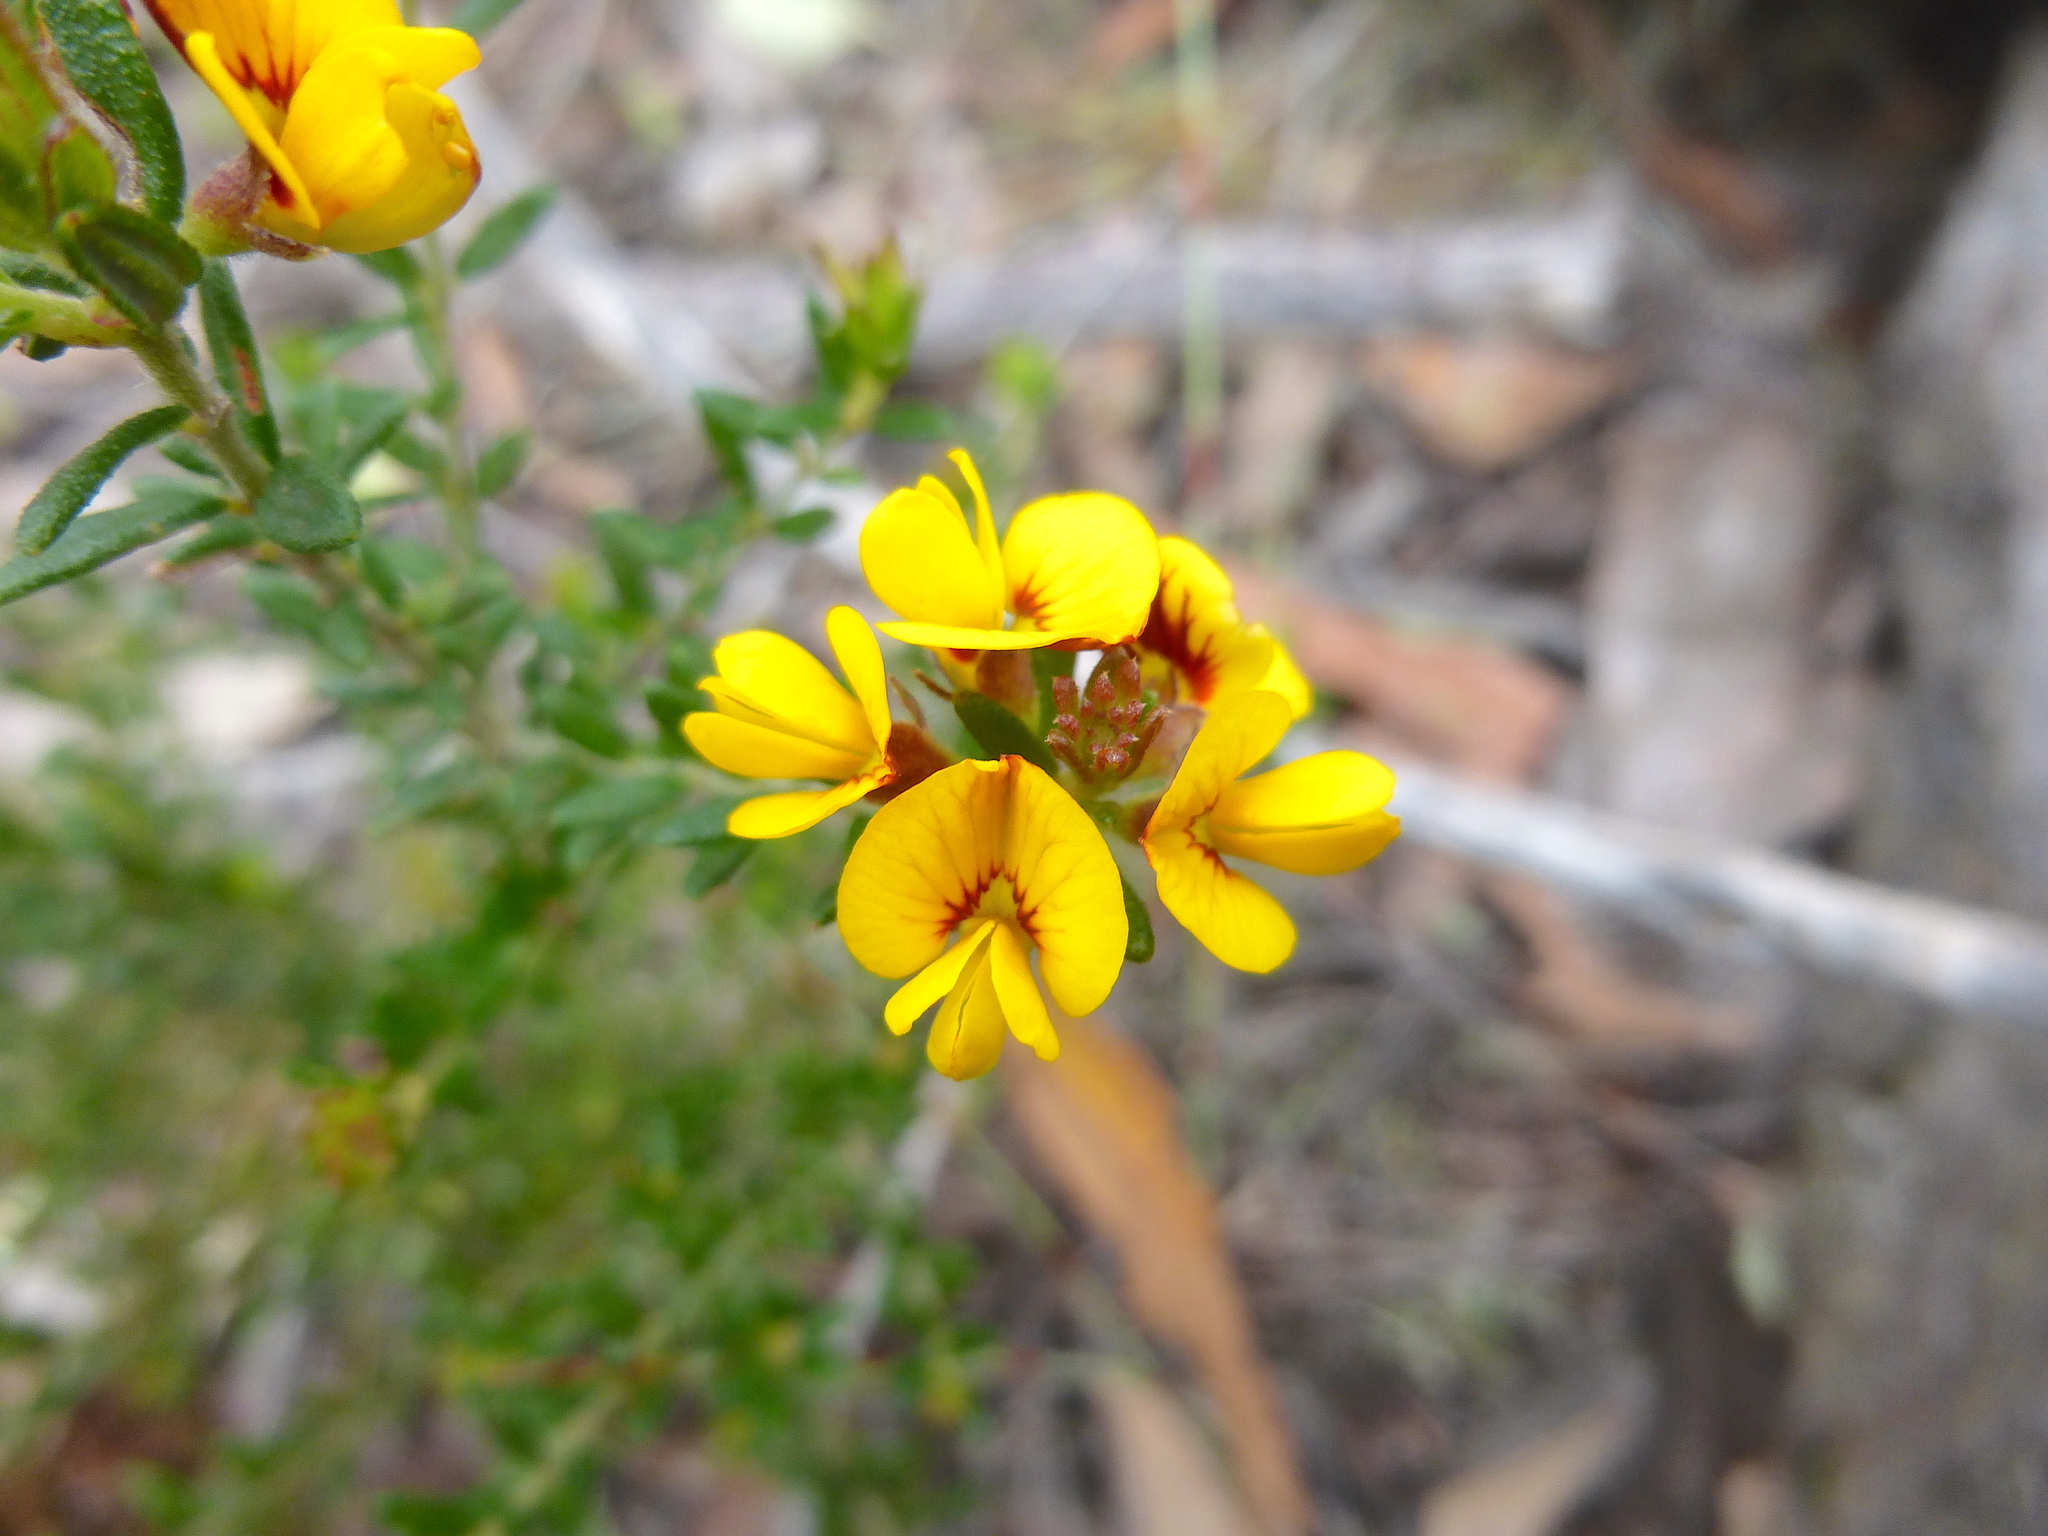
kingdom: Plantae
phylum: Tracheophyta
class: Magnoliopsida
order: Fabales
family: Fabaceae
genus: Aotus
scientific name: Aotus ericoides
